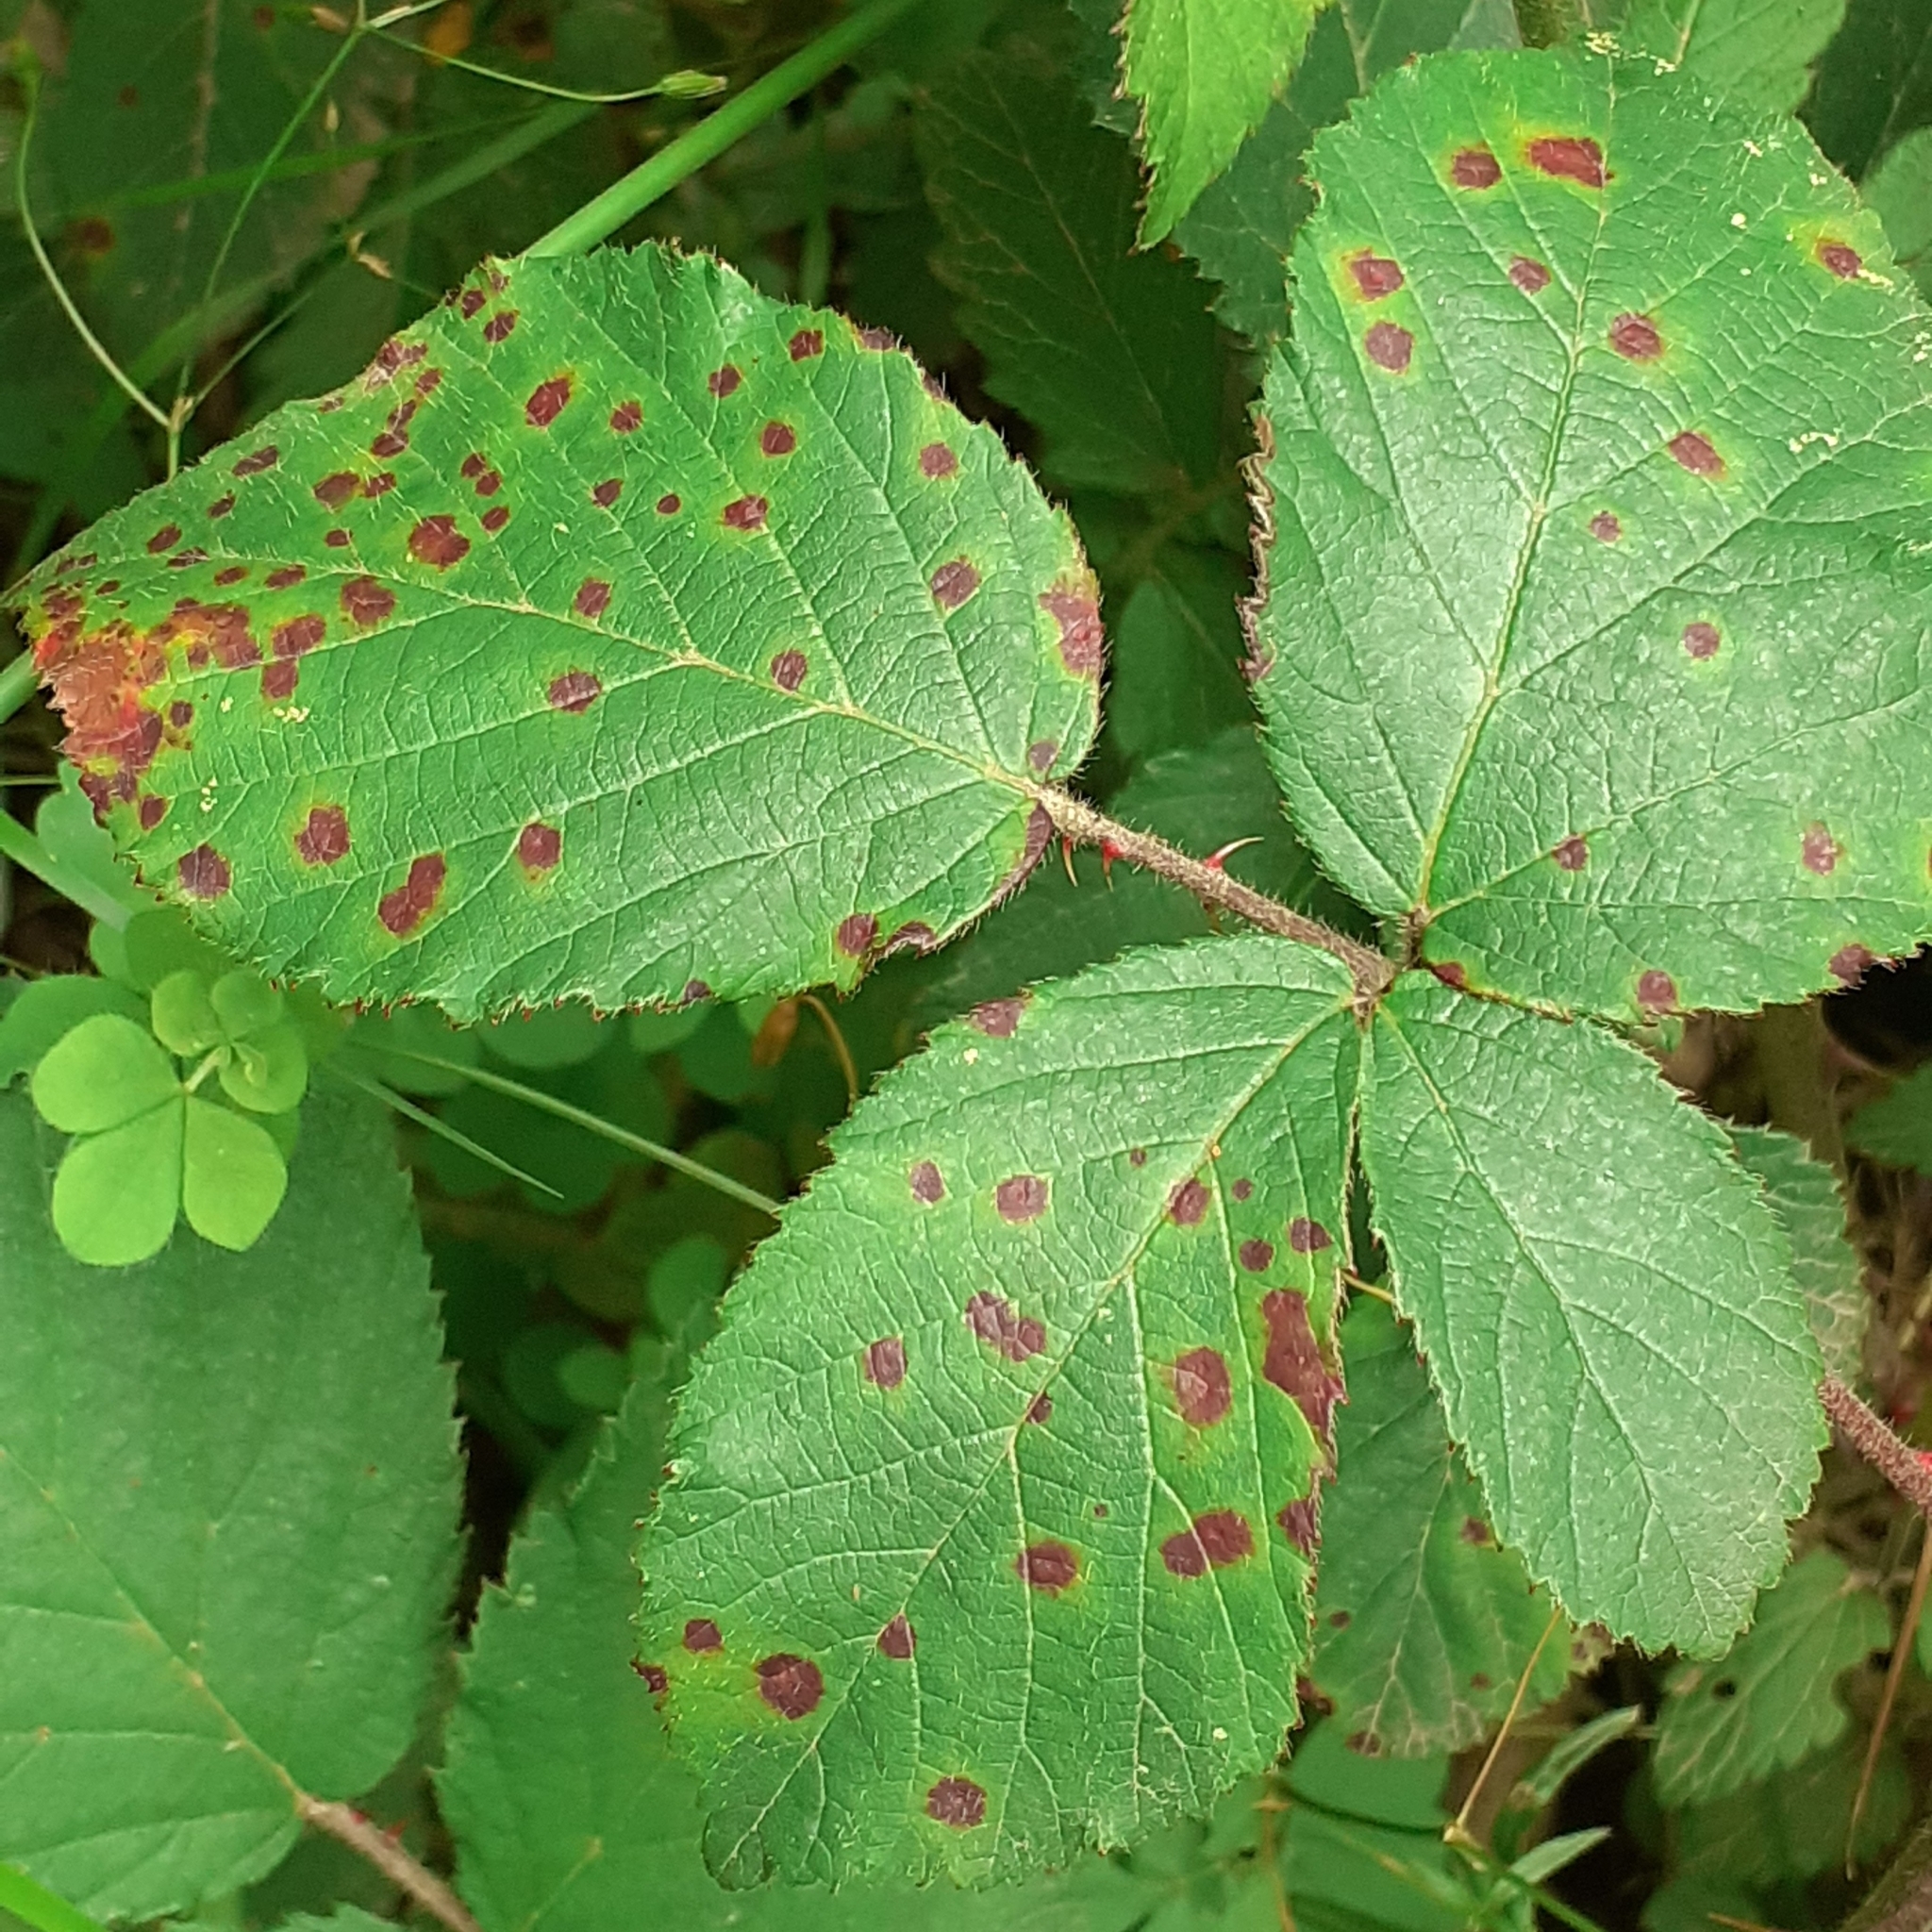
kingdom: Fungi
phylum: Basidiomycota
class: Pucciniomycetes
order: Pucciniales
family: Phragmidiaceae
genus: Phragmidium
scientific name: Phragmidium violaceum
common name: Violet bramble rust
